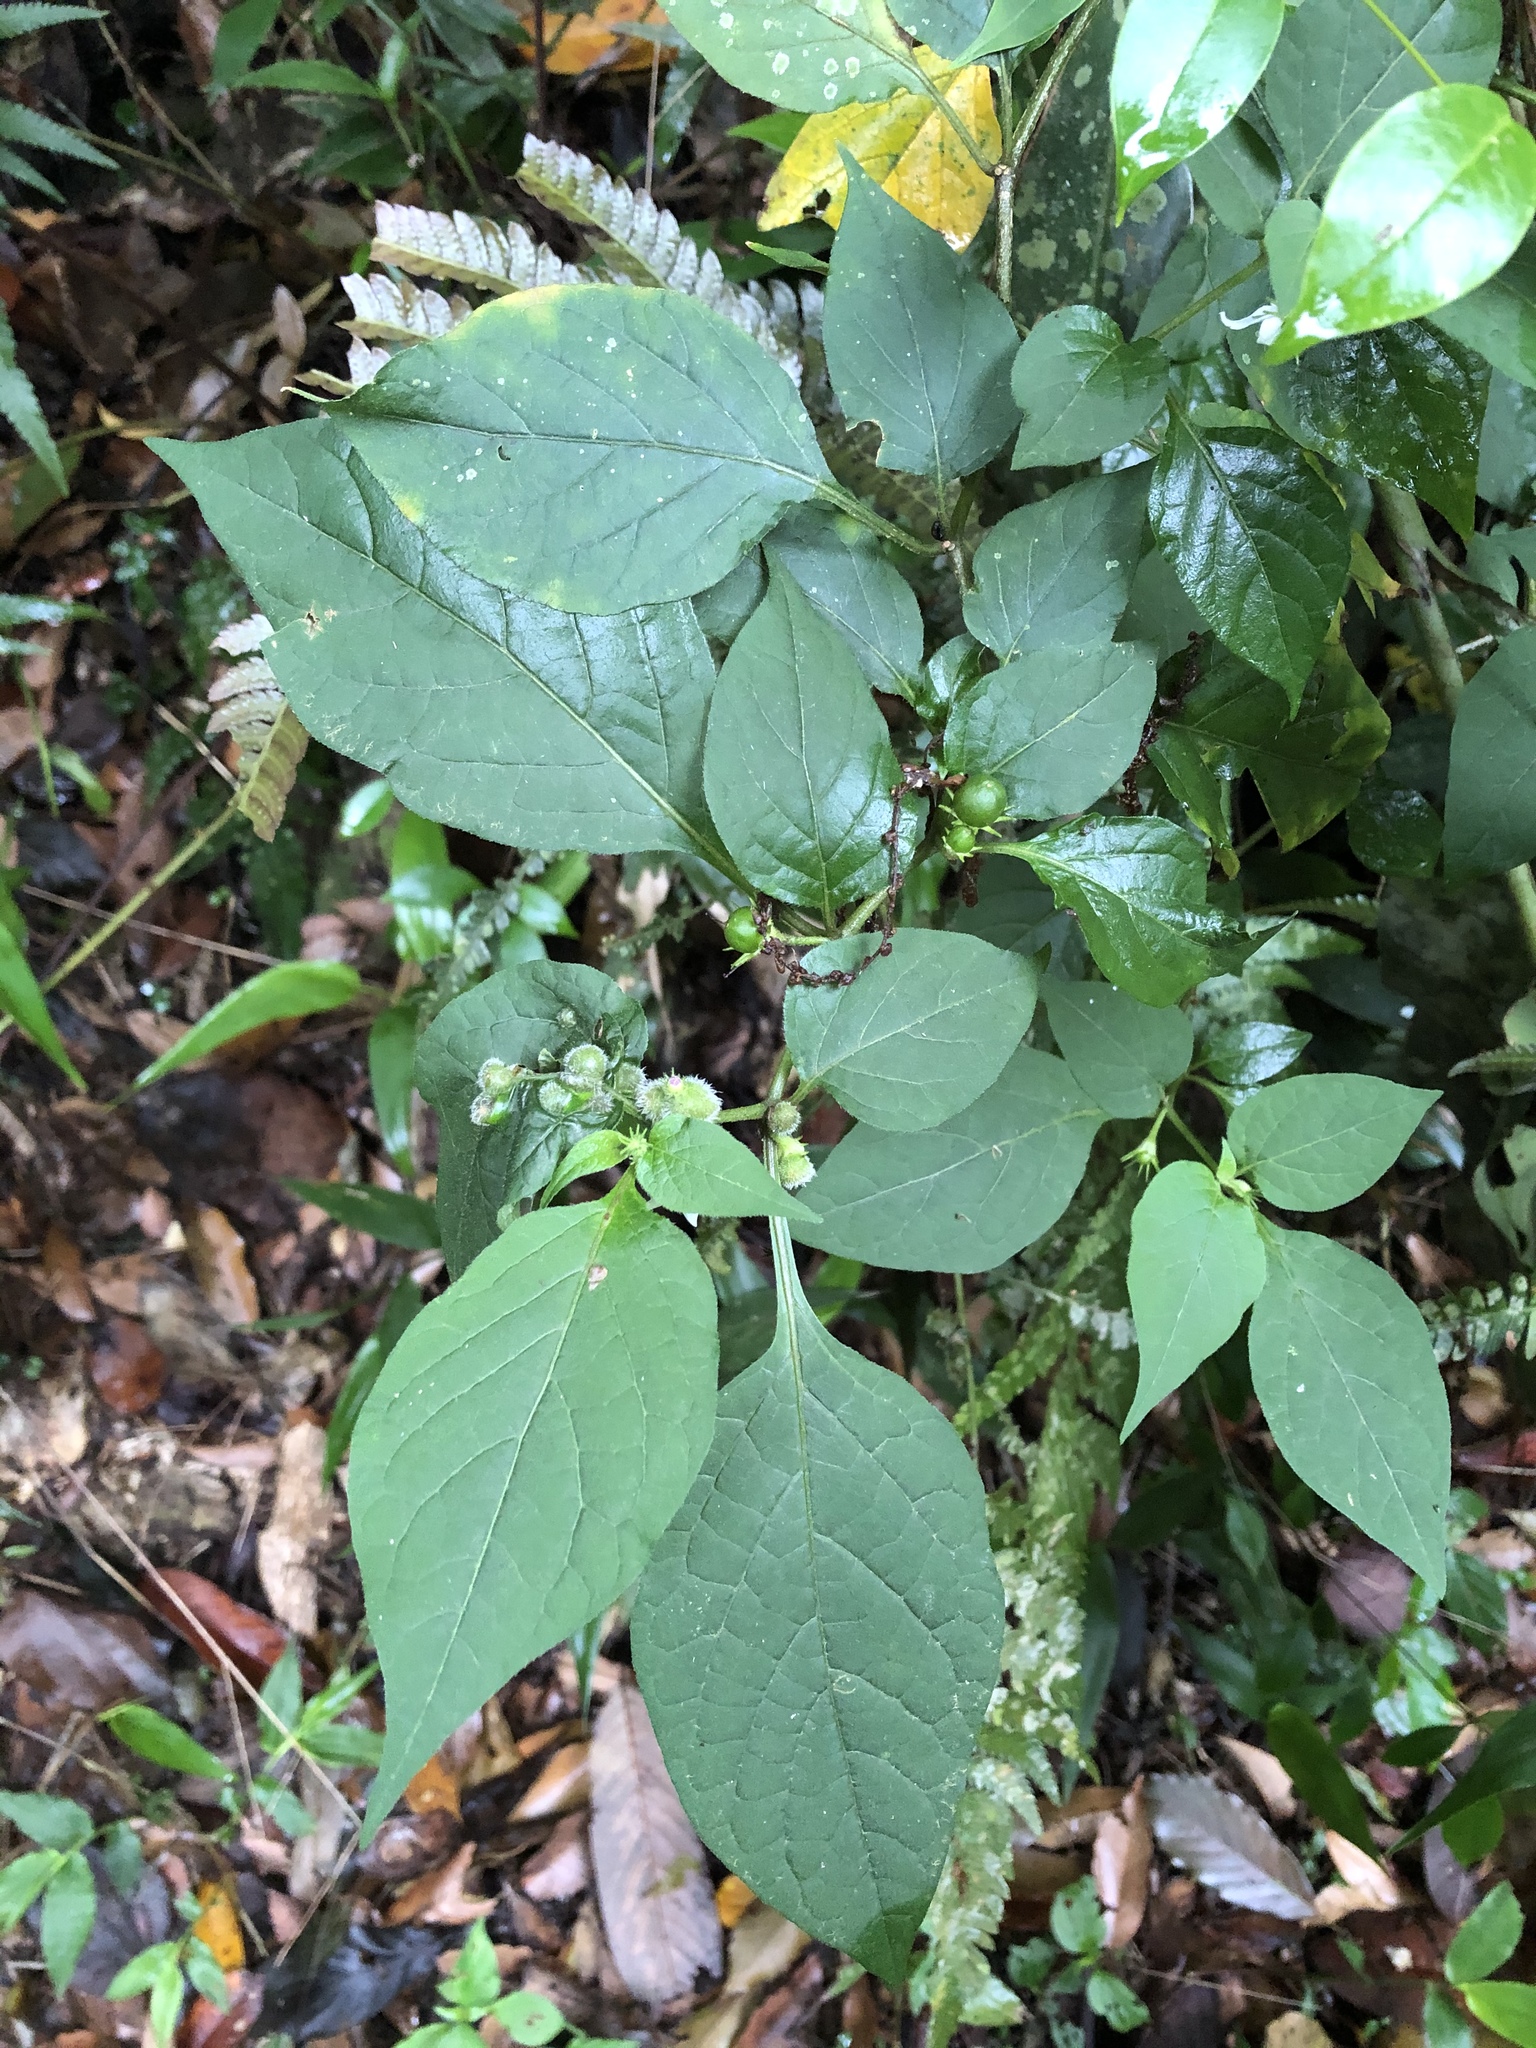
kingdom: Plantae
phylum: Tracheophyta
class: Magnoliopsida
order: Solanales
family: Solanaceae
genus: Lycianthes
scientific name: Lycianthes biflora
